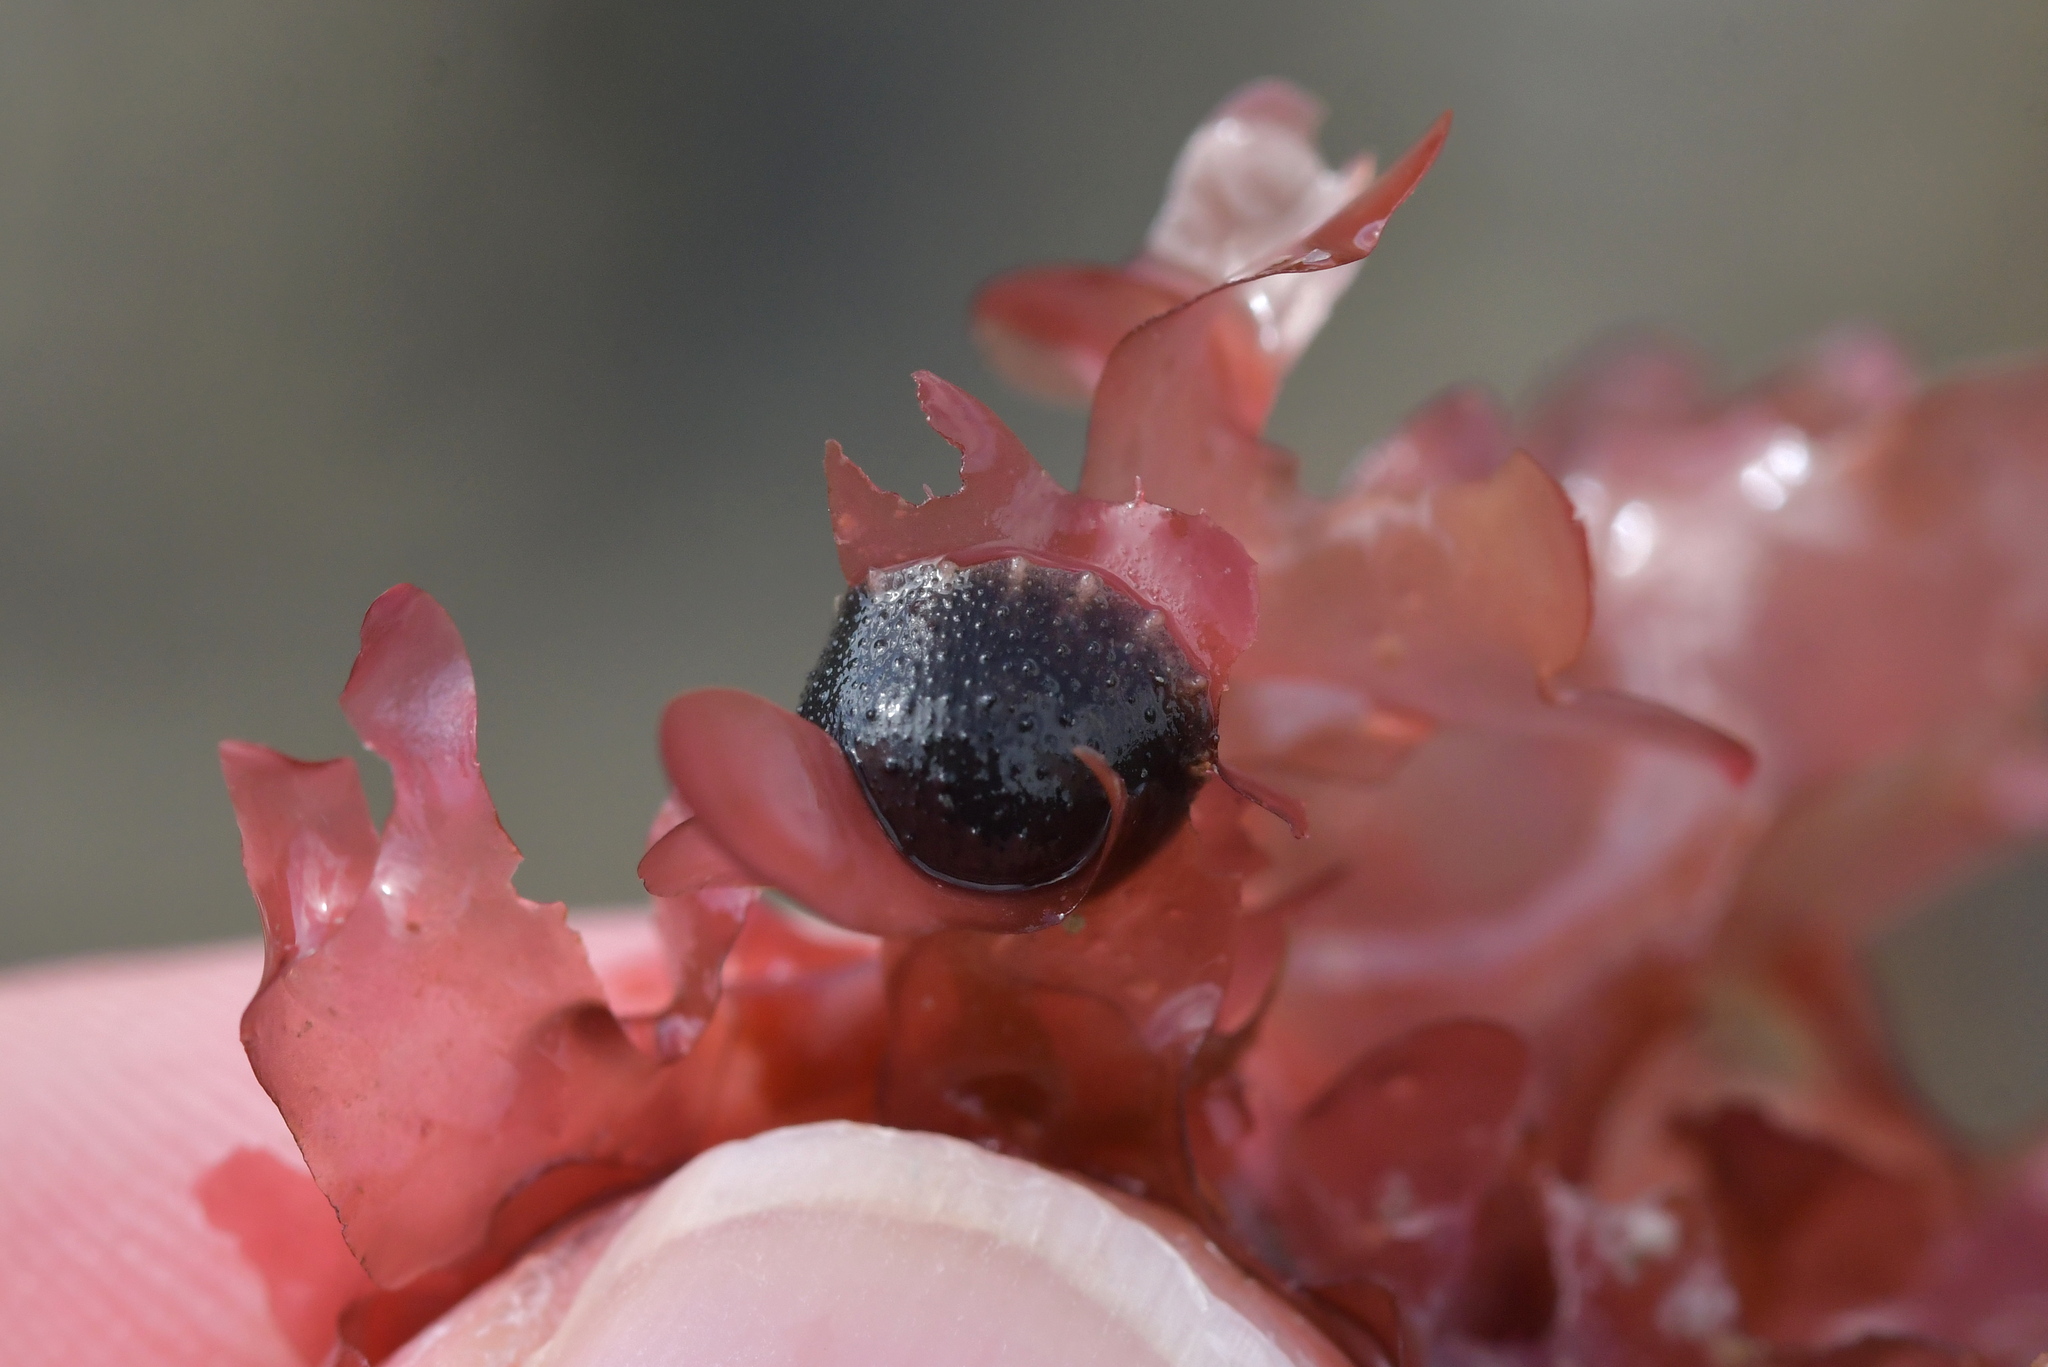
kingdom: Animalia
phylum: Mollusca
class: Gastropoda
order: Systellommatophora
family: Onchidiidae
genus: Onchidella
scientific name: Onchidella nigricans
